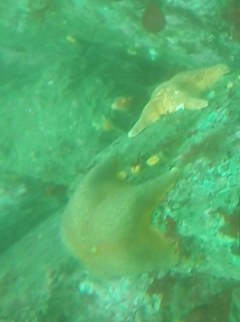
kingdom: Animalia
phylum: Echinodermata
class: Asteroidea
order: Valvatida
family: Asterinidae
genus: Patiria
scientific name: Patiria miniata
